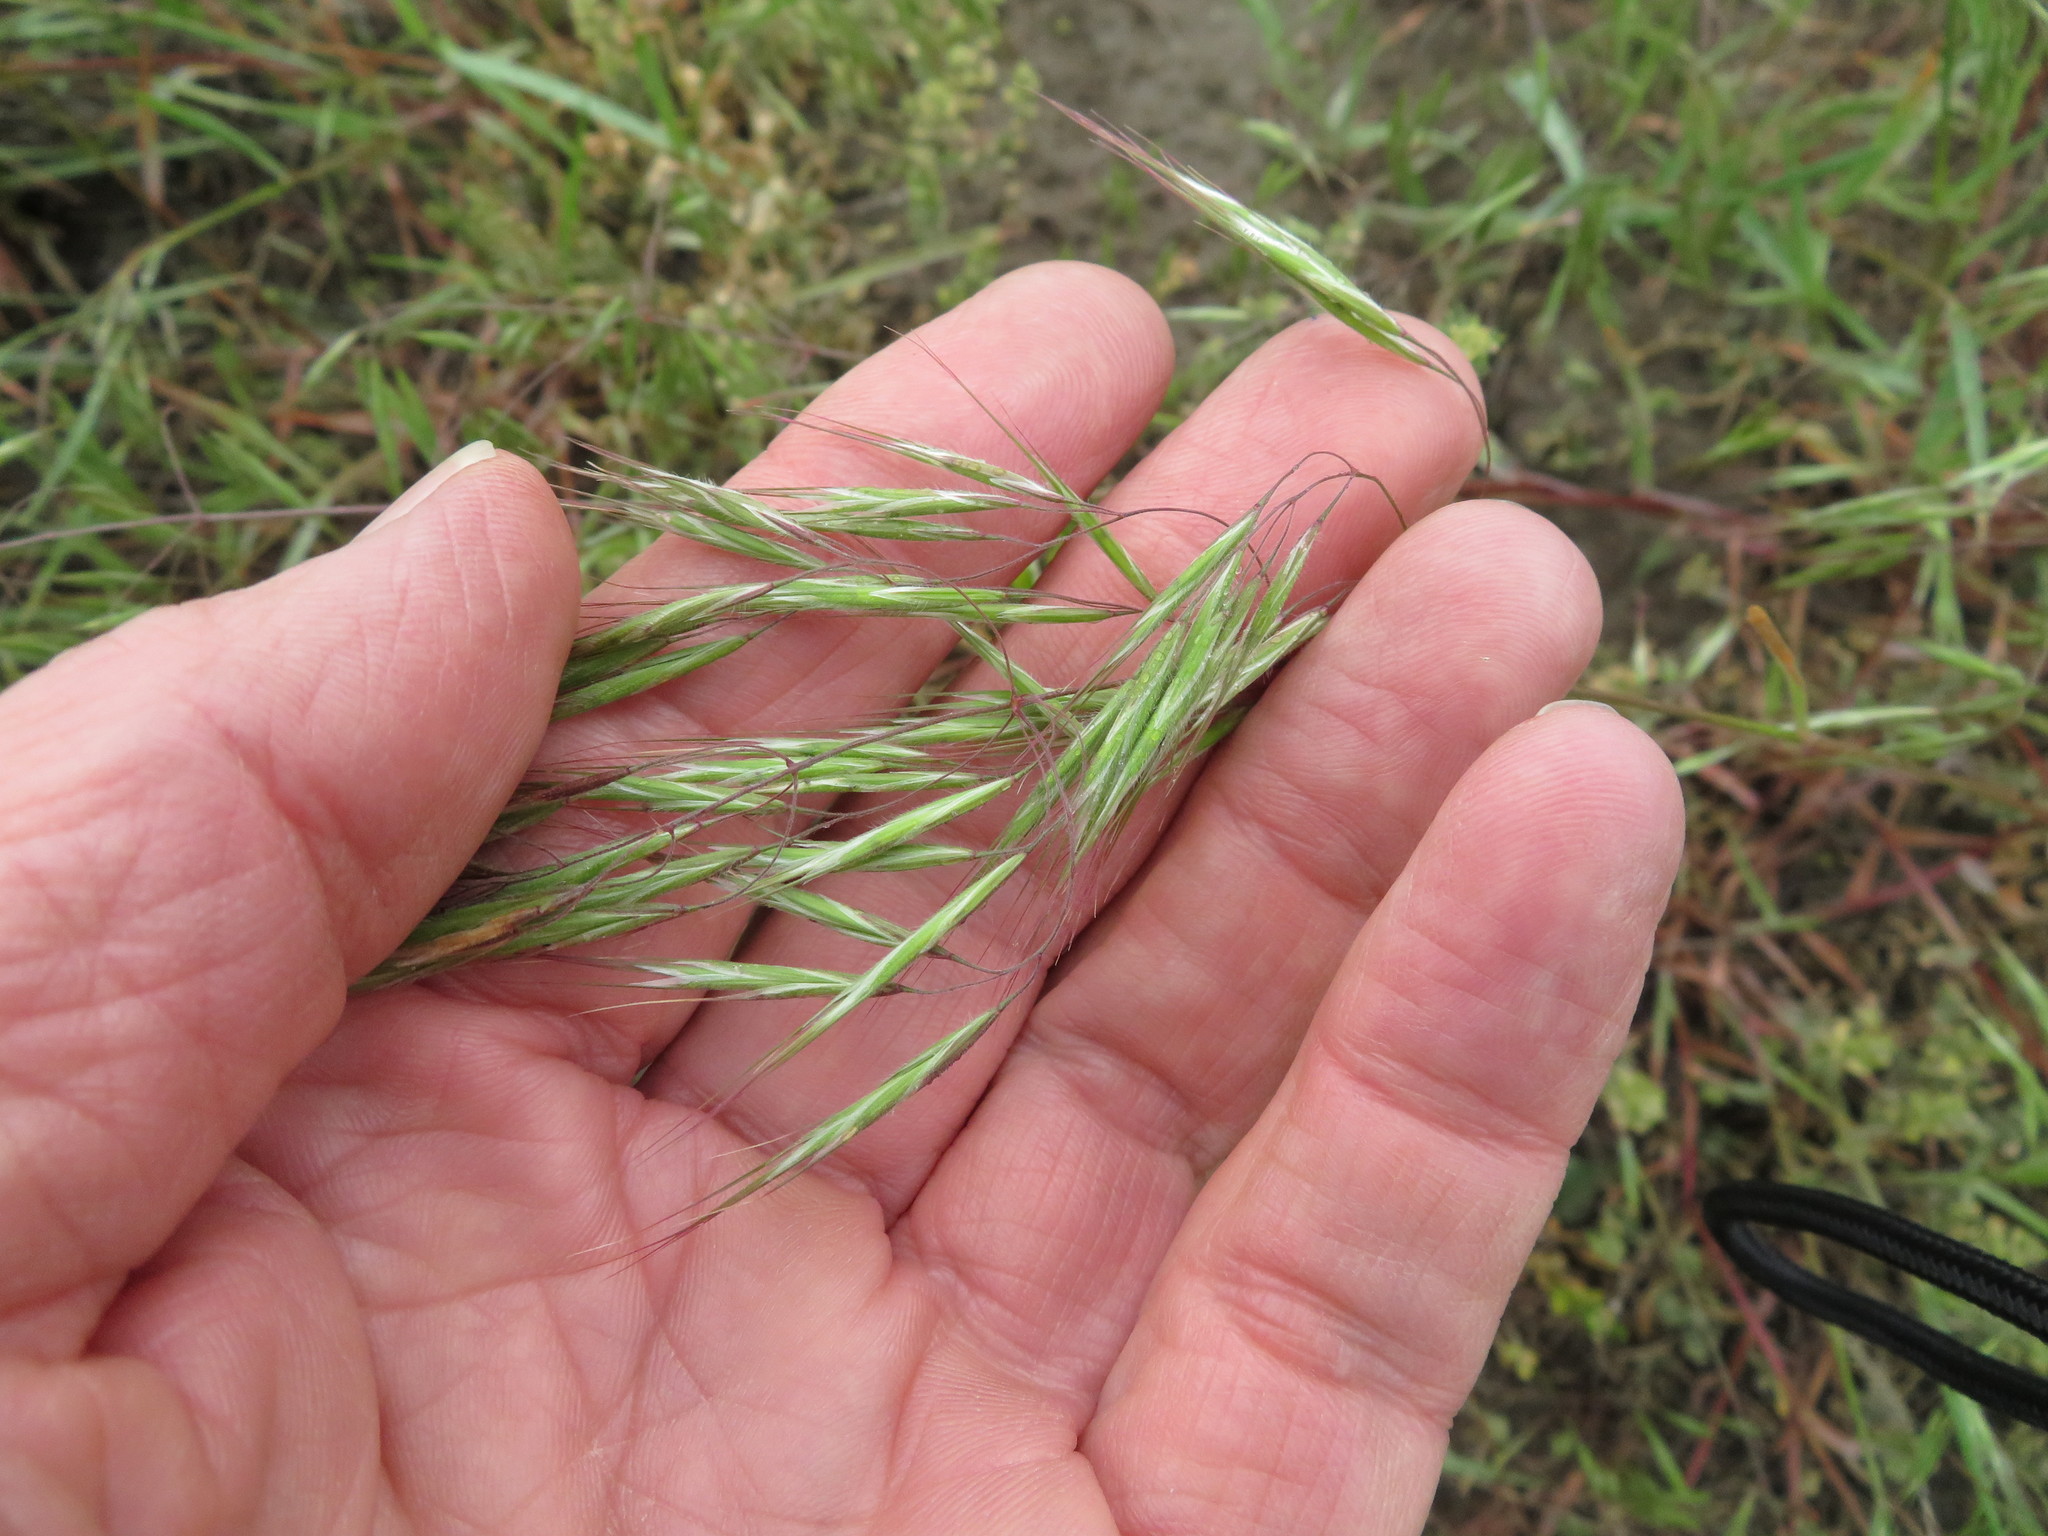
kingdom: Plantae
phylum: Tracheophyta
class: Liliopsida
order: Poales
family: Poaceae
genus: Bromus
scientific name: Bromus tectorum
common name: Cheatgrass
